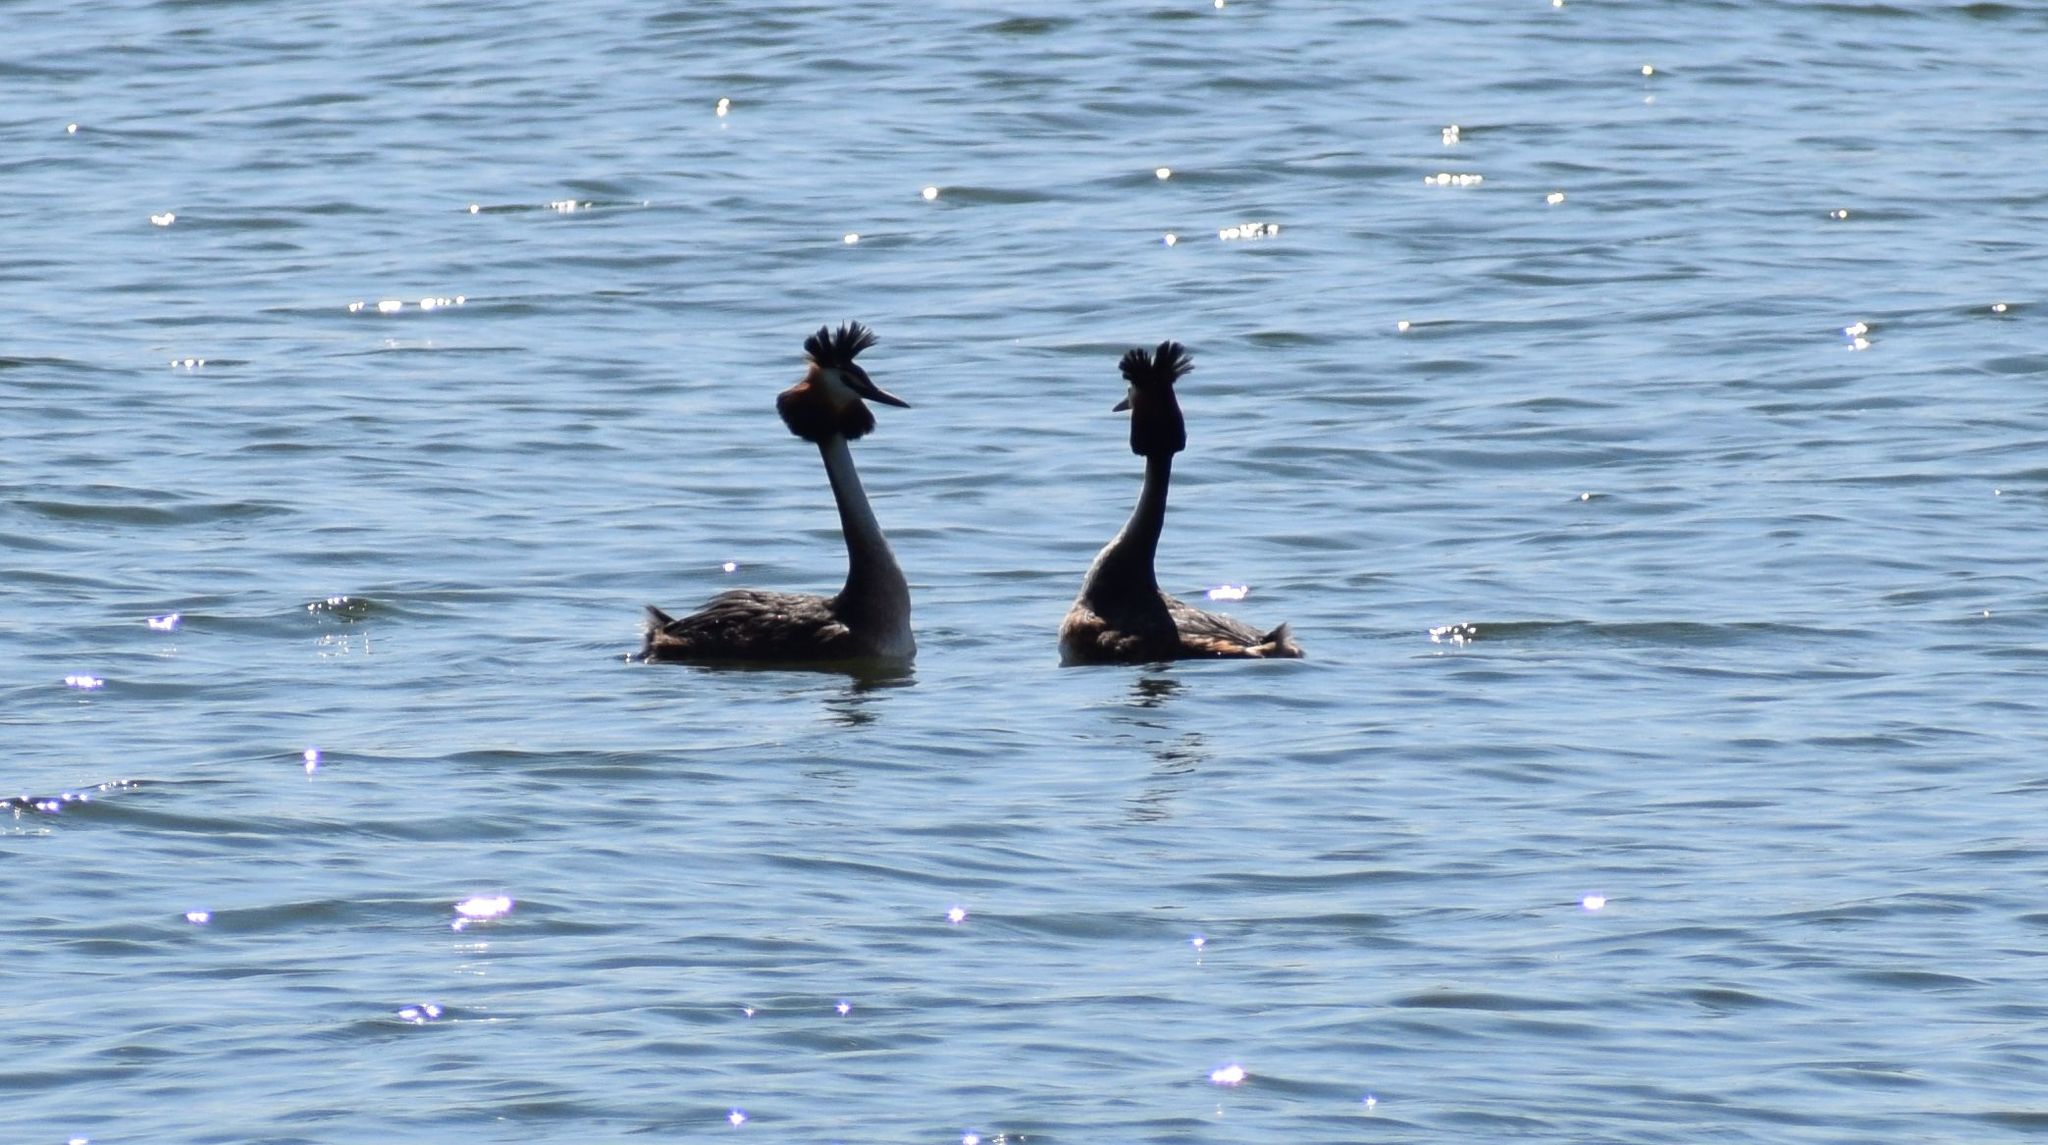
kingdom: Animalia
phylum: Chordata
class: Aves
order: Podicipediformes
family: Podicipedidae
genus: Podiceps
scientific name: Podiceps cristatus
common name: Great crested grebe
